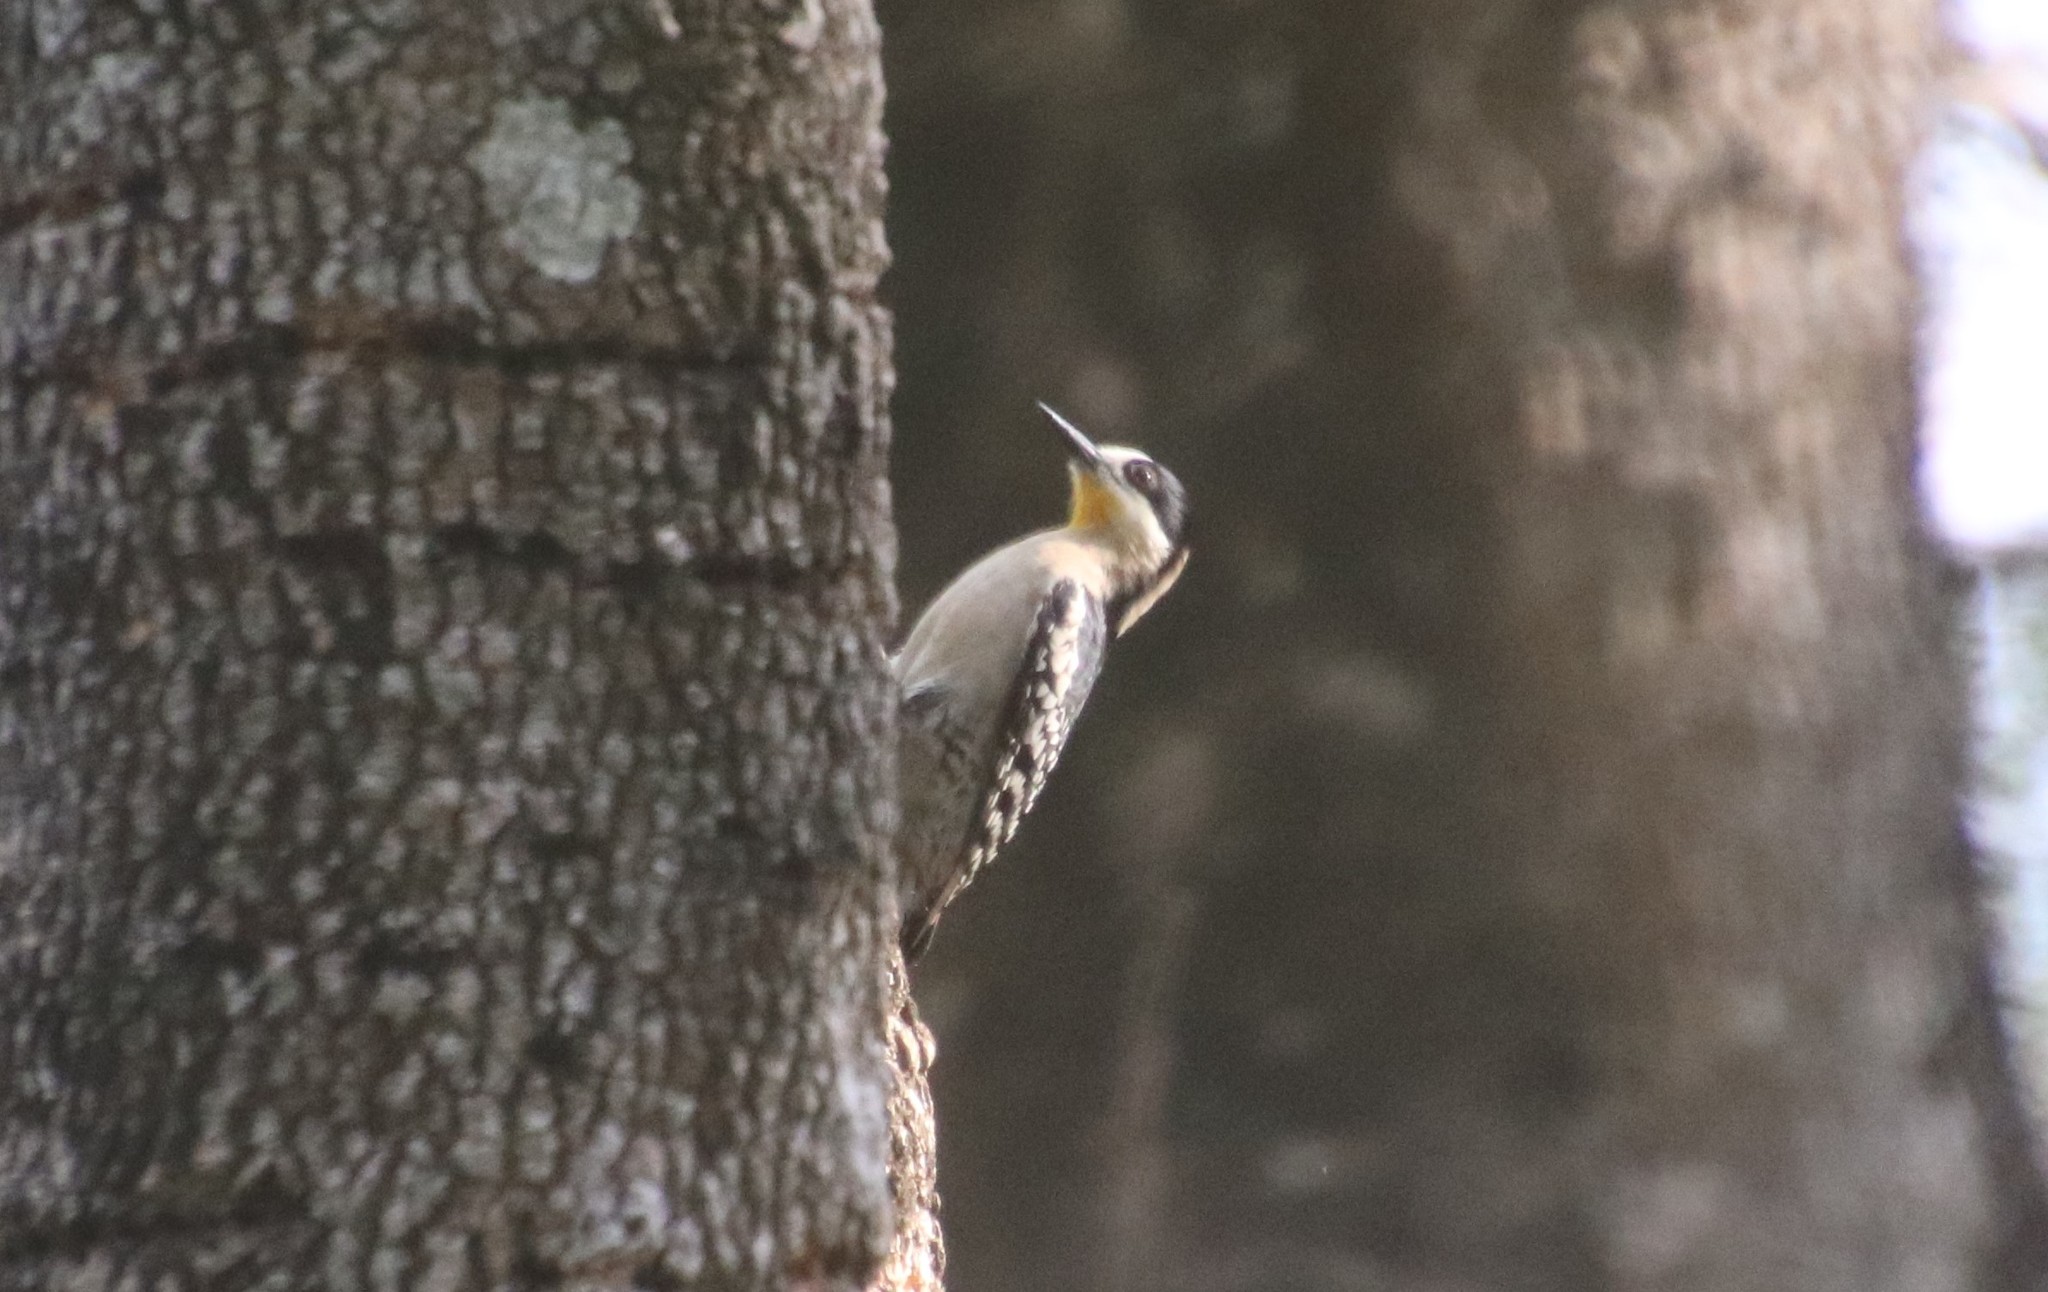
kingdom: Animalia
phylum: Chordata
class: Aves
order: Piciformes
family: Picidae
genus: Melanerpes
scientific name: Melanerpes cactorum
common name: White-fronted woodpecker
